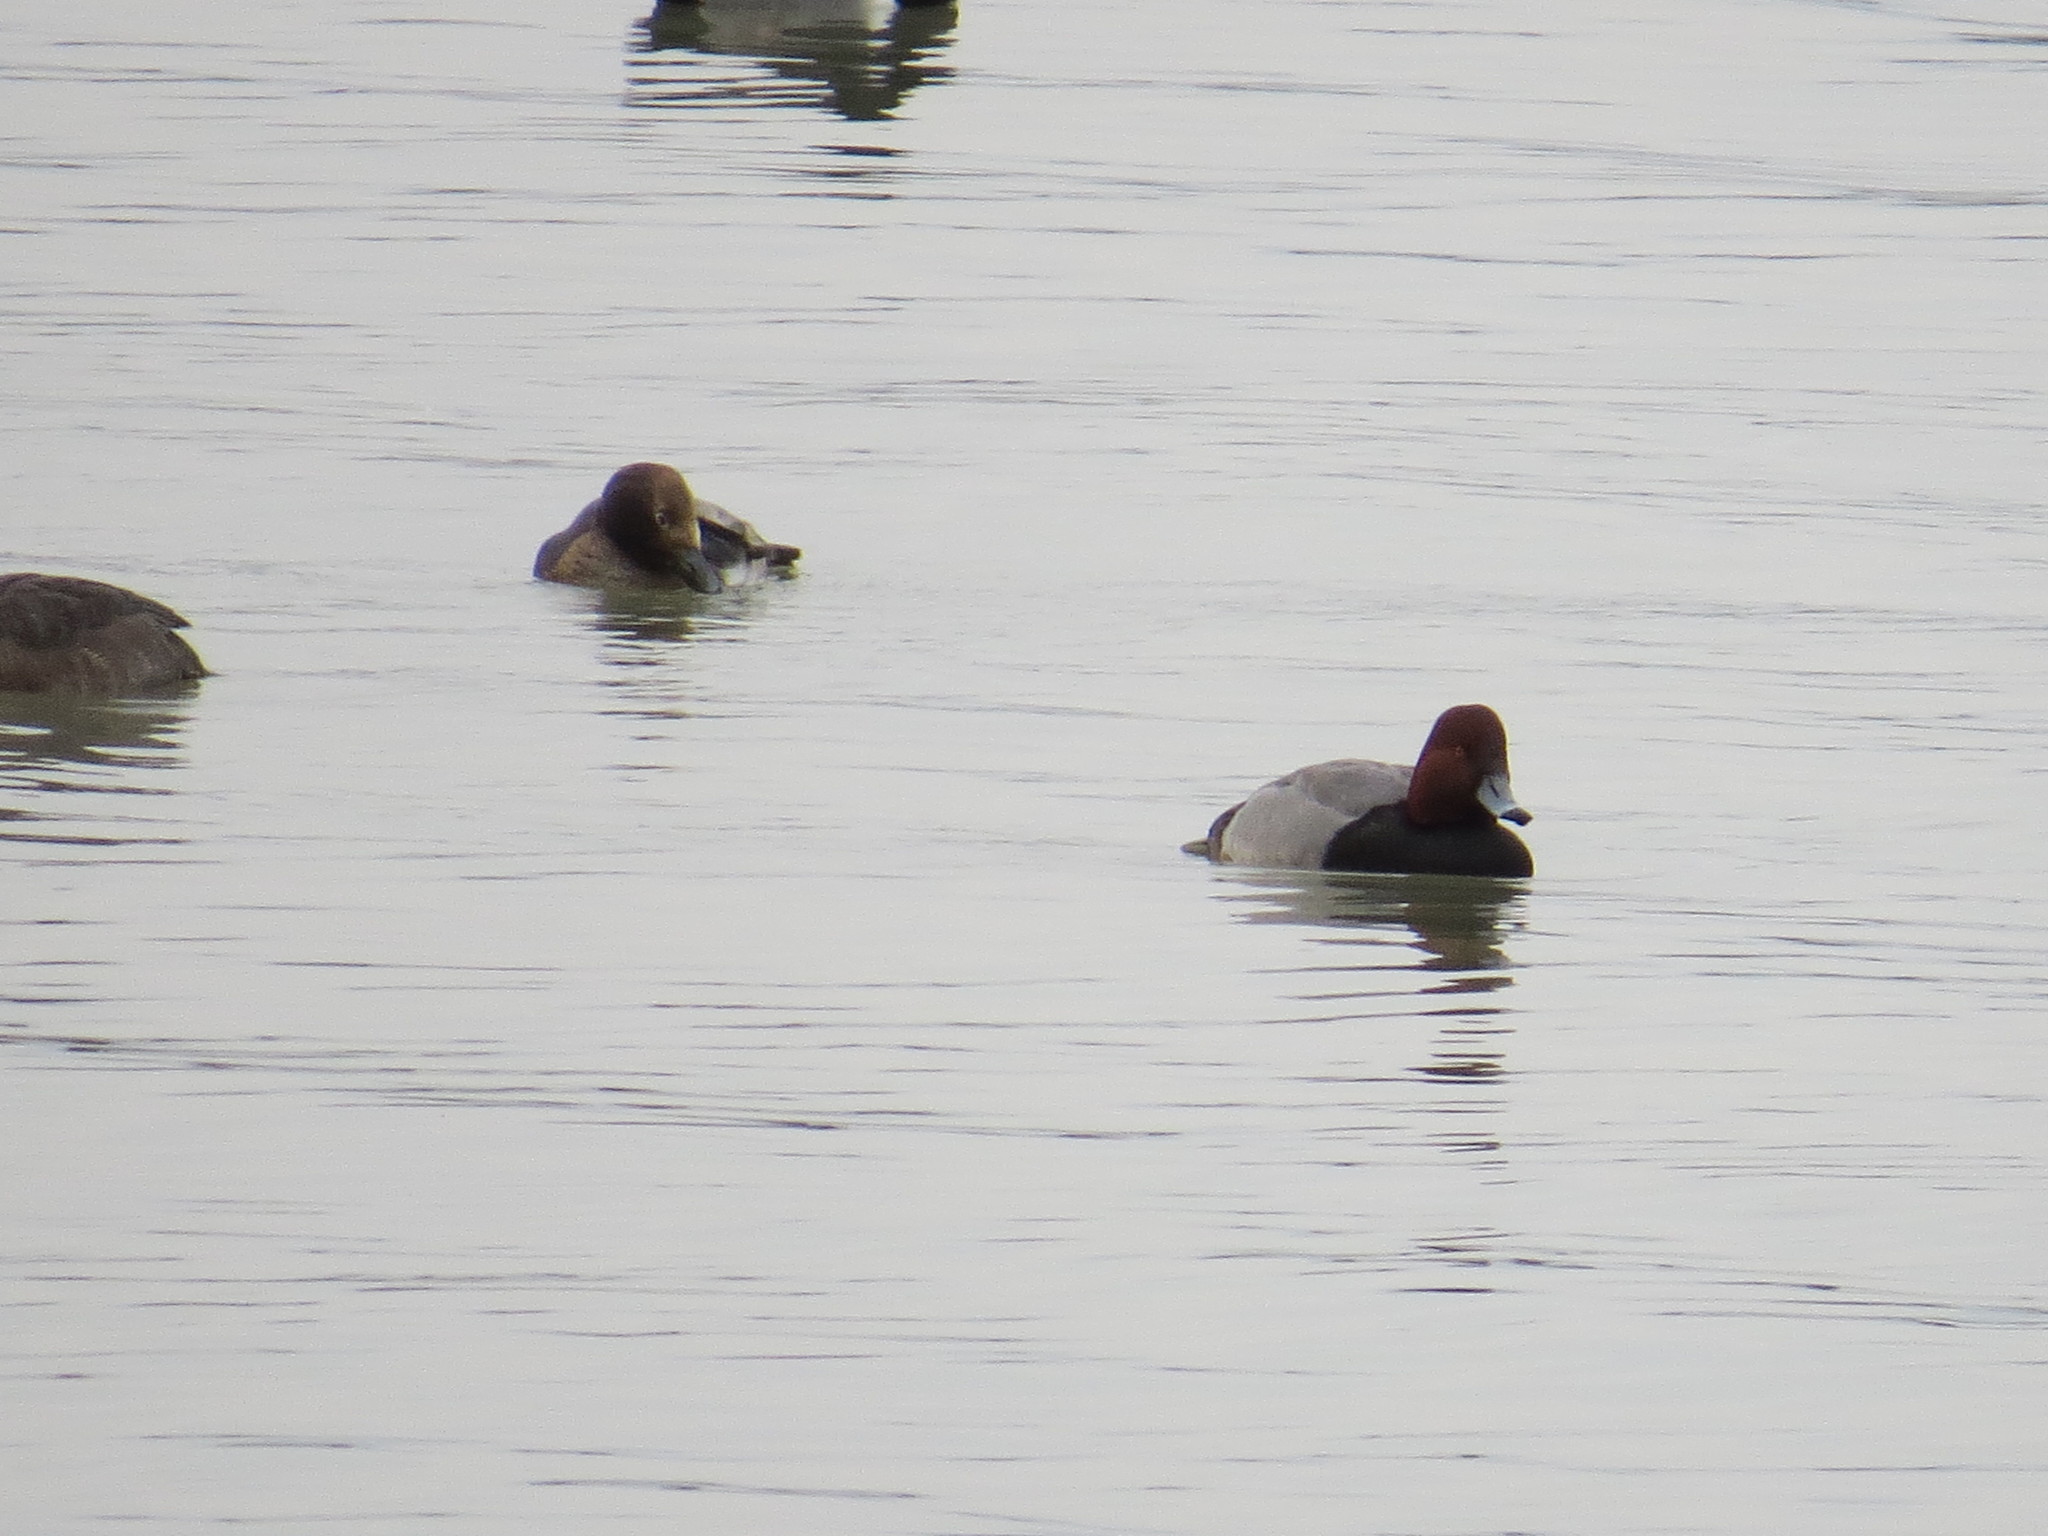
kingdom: Animalia
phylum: Chordata
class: Aves
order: Anseriformes
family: Anatidae
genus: Aythya
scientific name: Aythya americana
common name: Redhead
